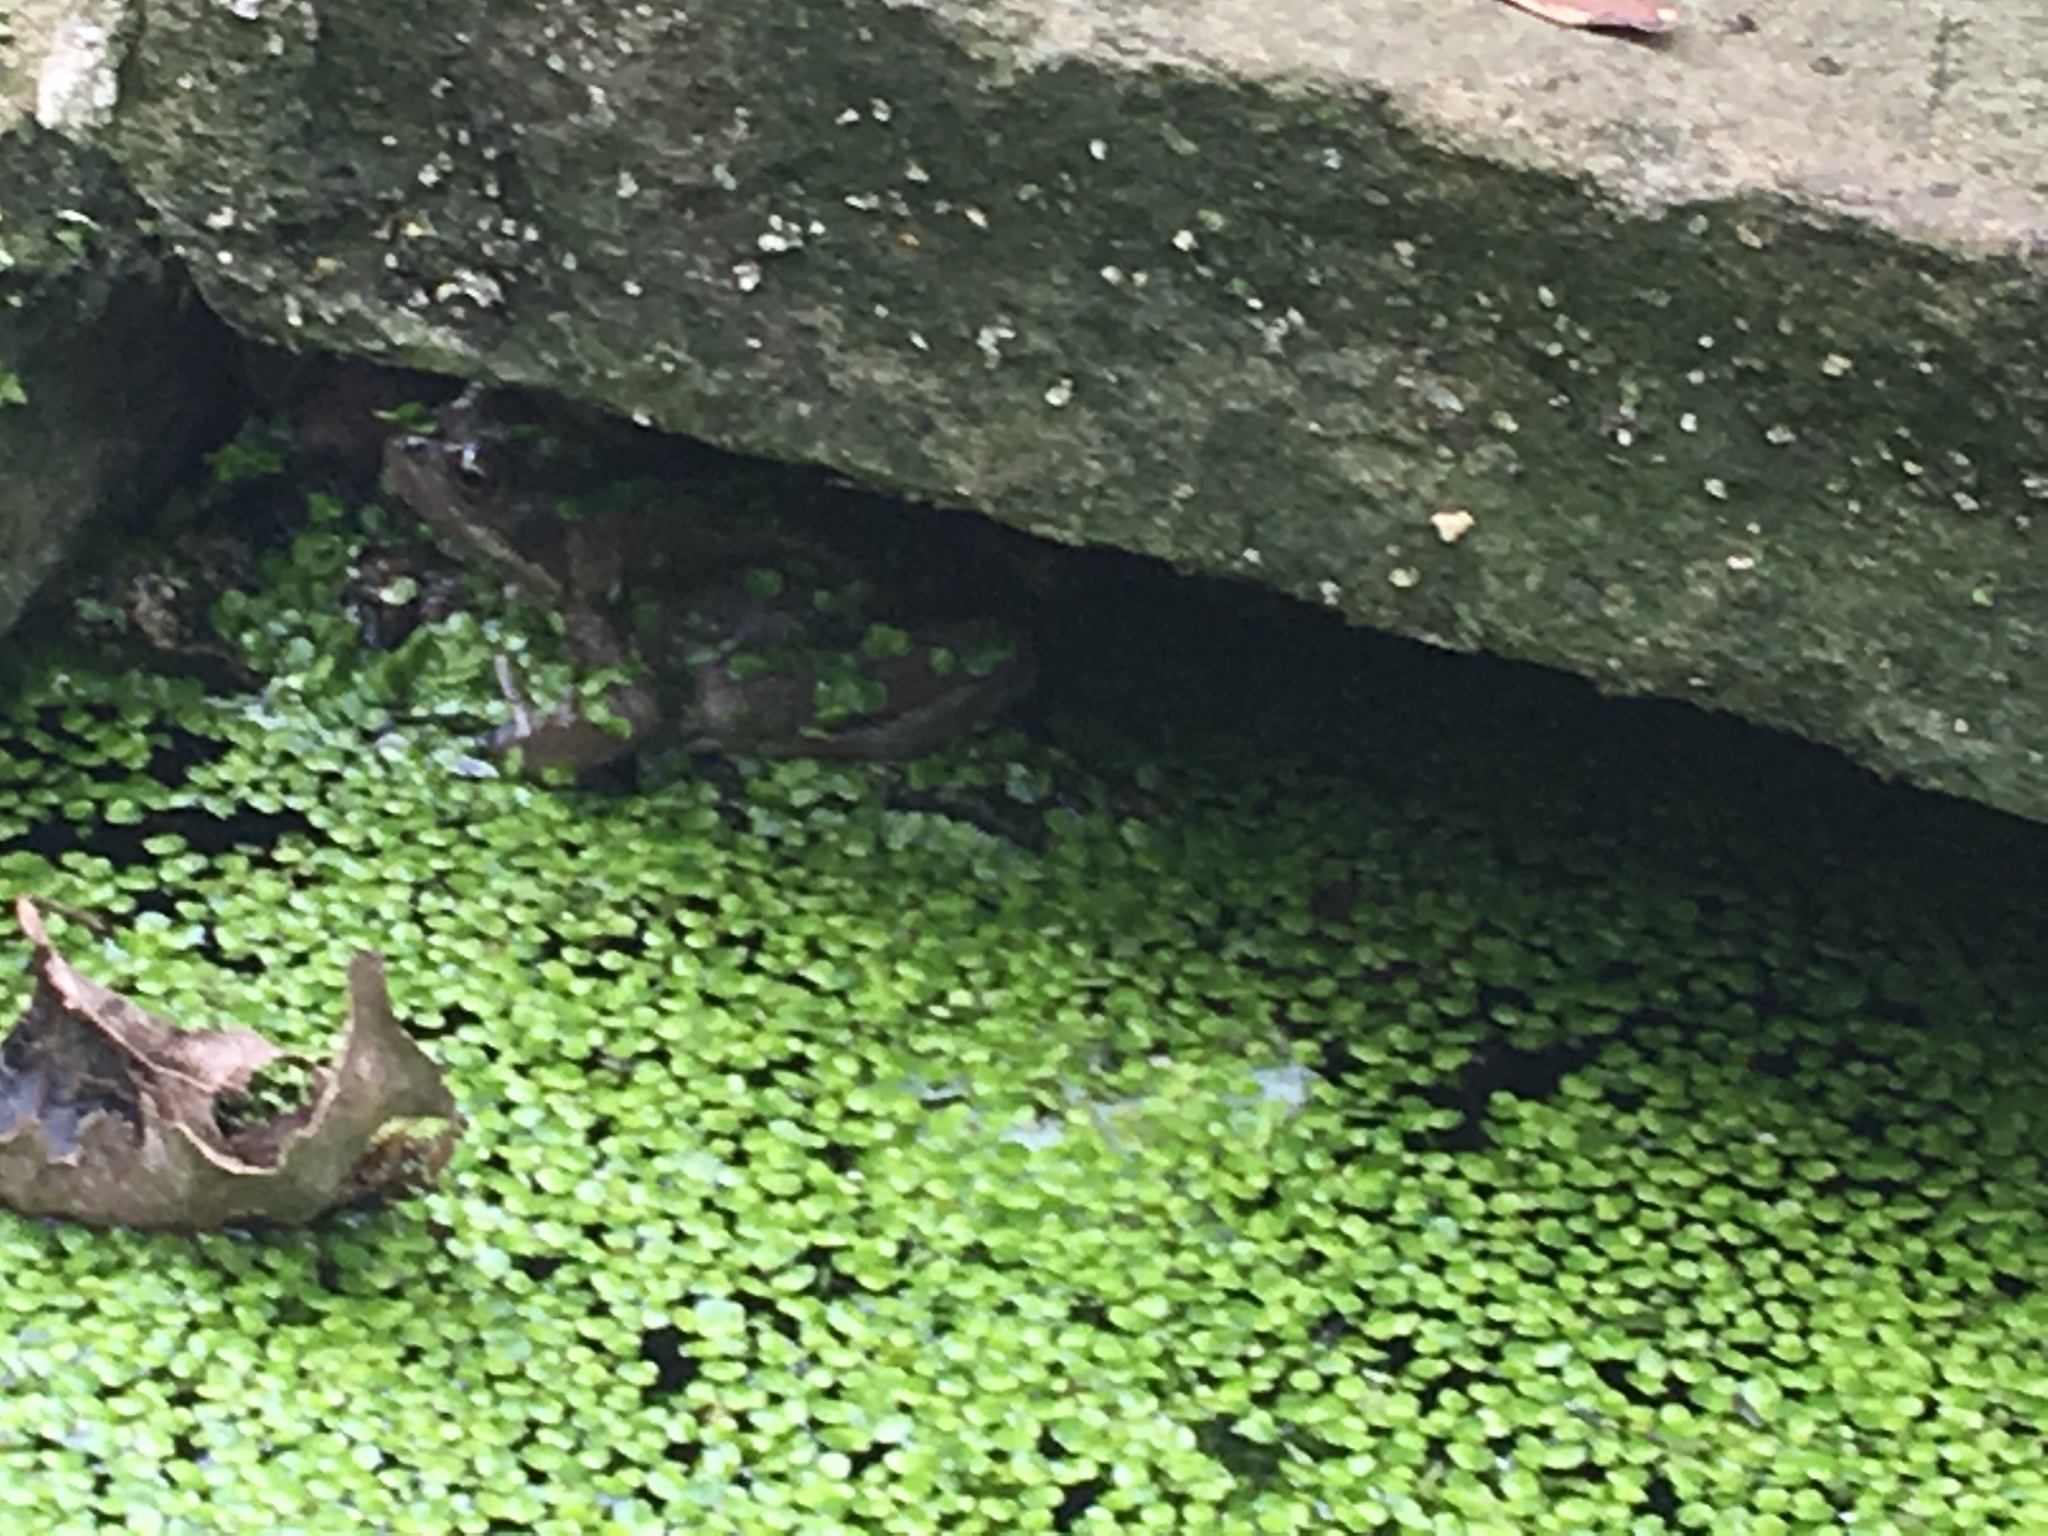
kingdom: Animalia
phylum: Chordata
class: Amphibia
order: Anura
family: Ranidae
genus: Rana
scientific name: Rana temporaria
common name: Common frog
